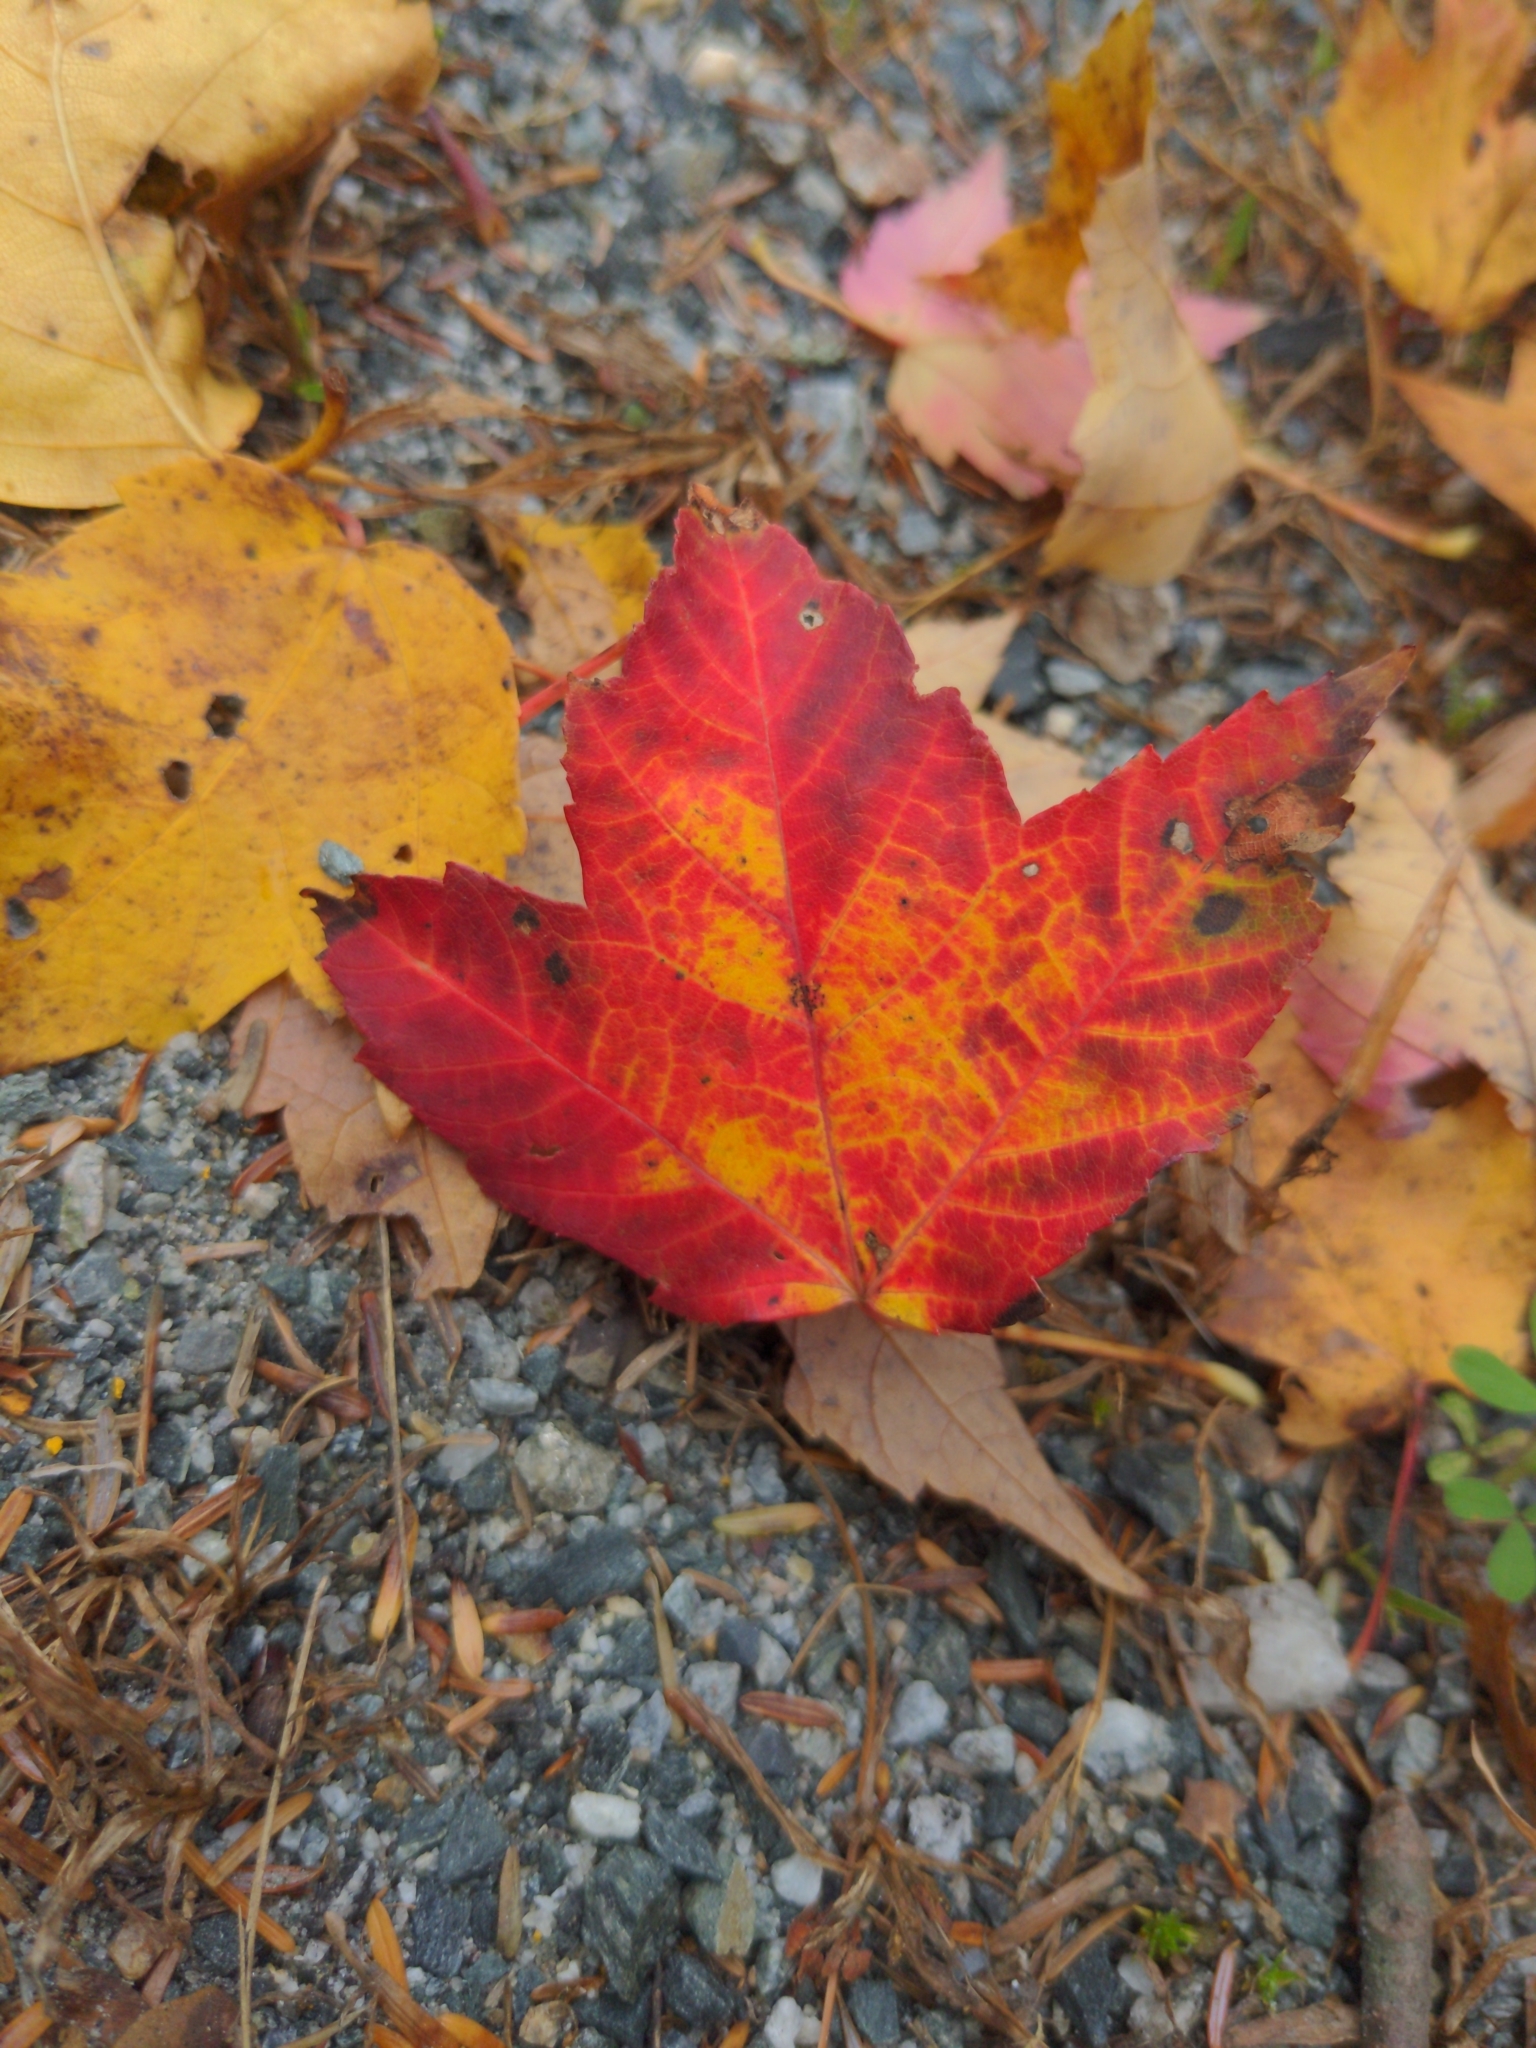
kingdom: Plantae
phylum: Tracheophyta
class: Magnoliopsida
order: Sapindales
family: Sapindaceae
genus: Acer
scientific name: Acer rubrum
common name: Red maple
